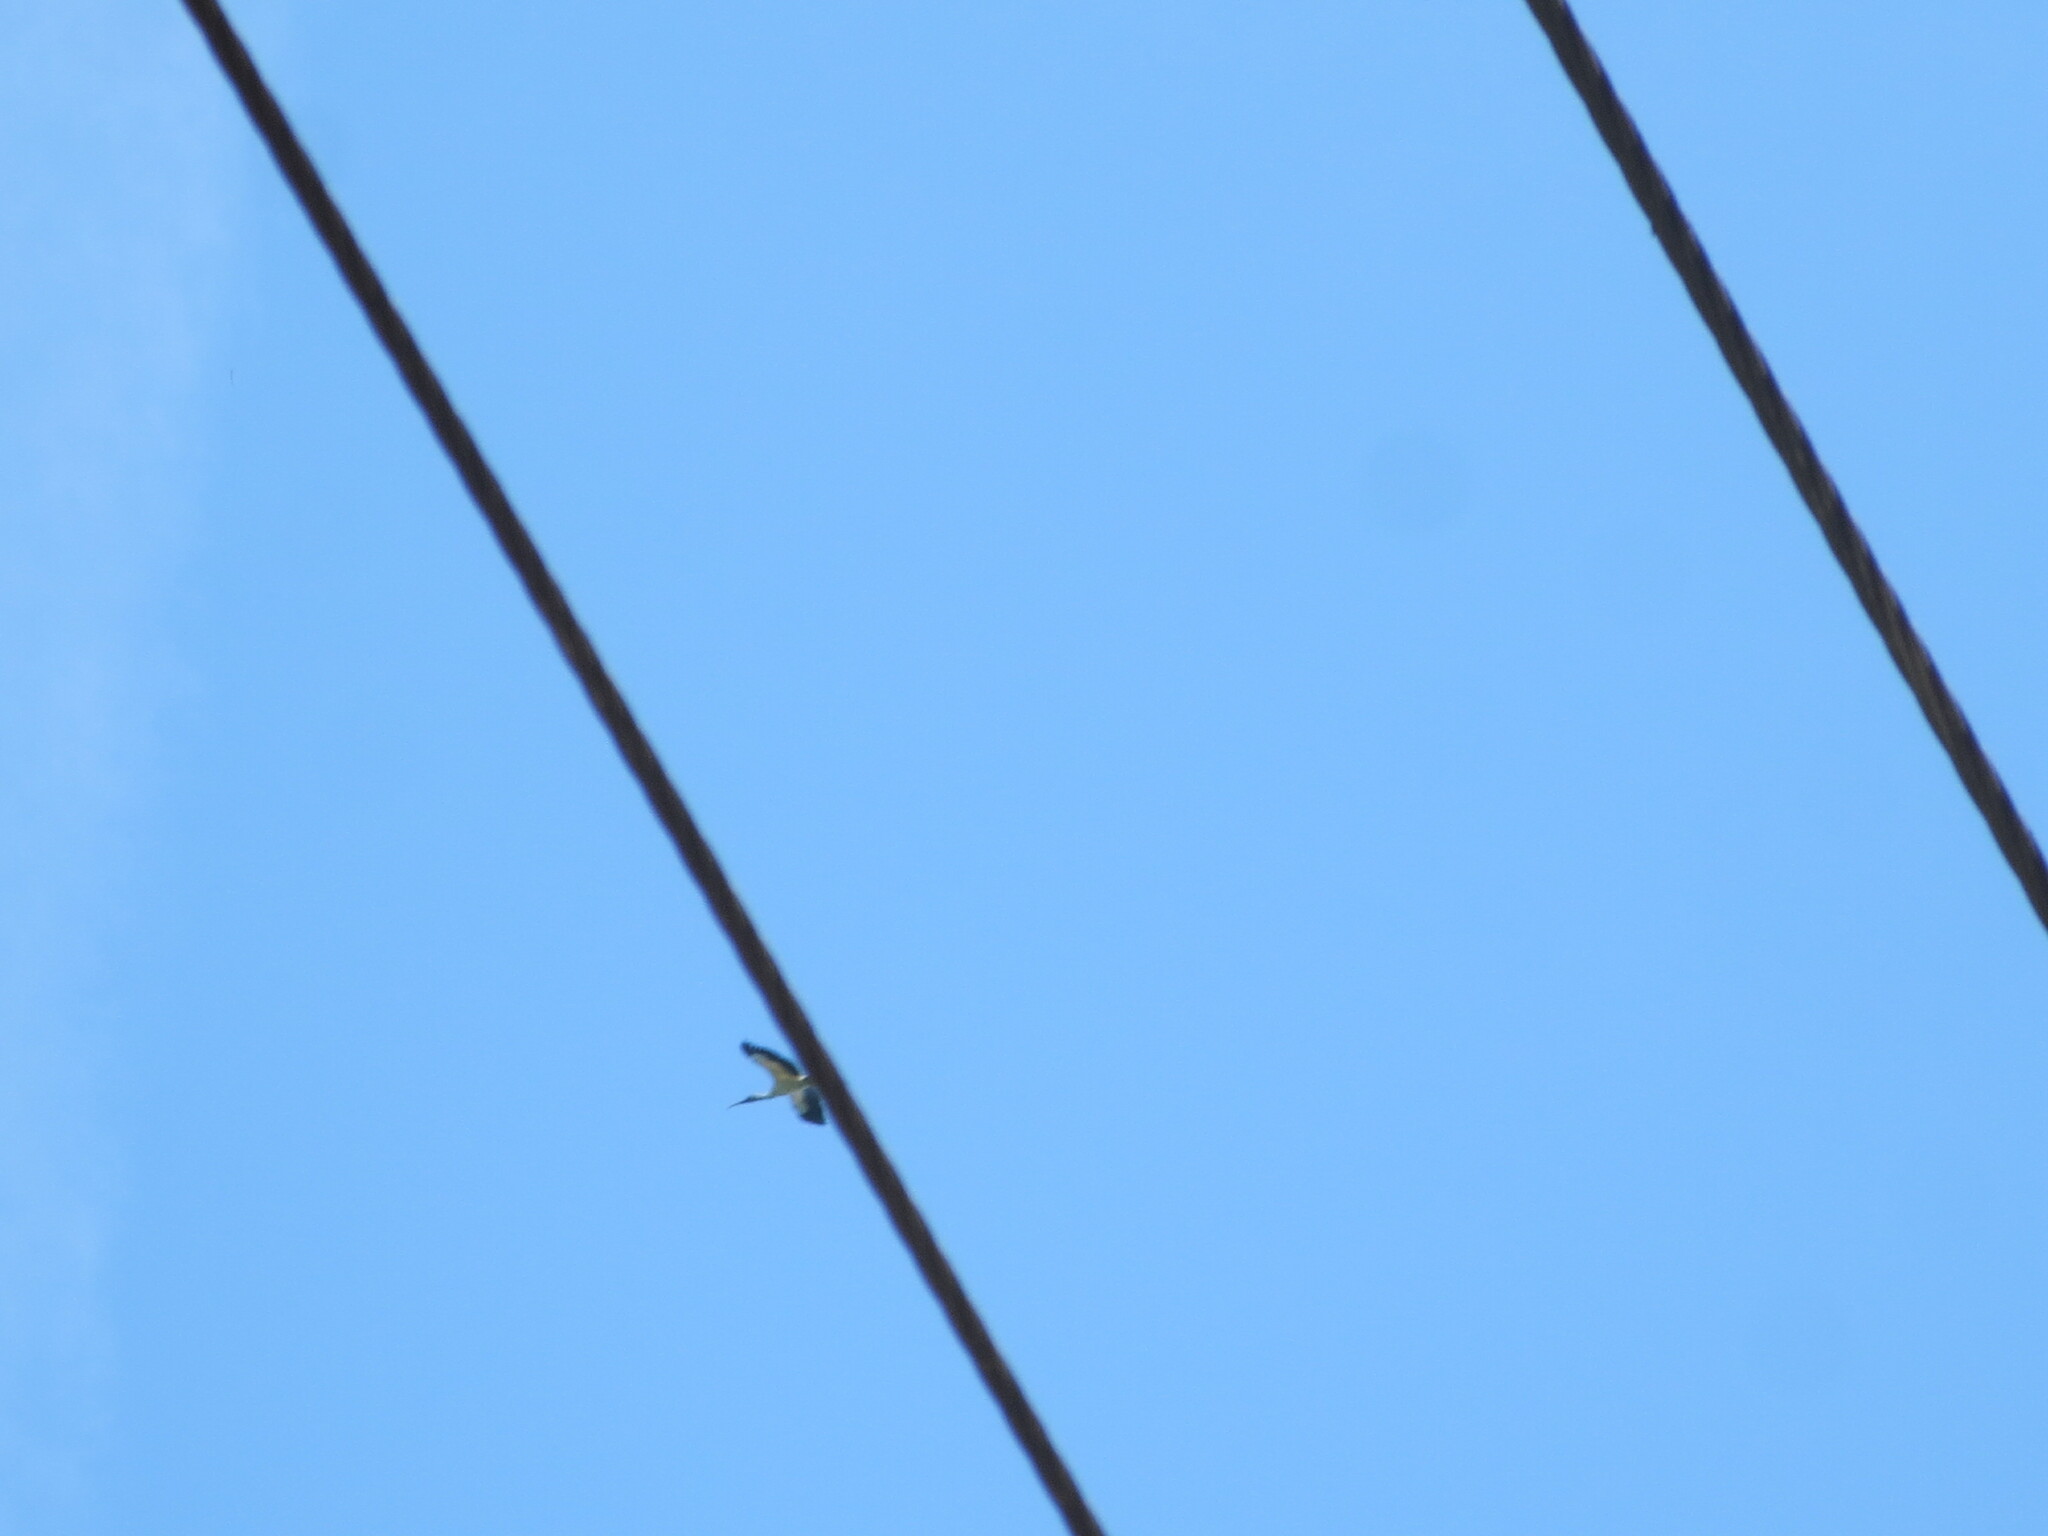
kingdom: Animalia
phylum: Chordata
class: Aves
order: Ciconiiformes
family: Ciconiidae
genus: Mycteria
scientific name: Mycteria americana
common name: Wood stork
